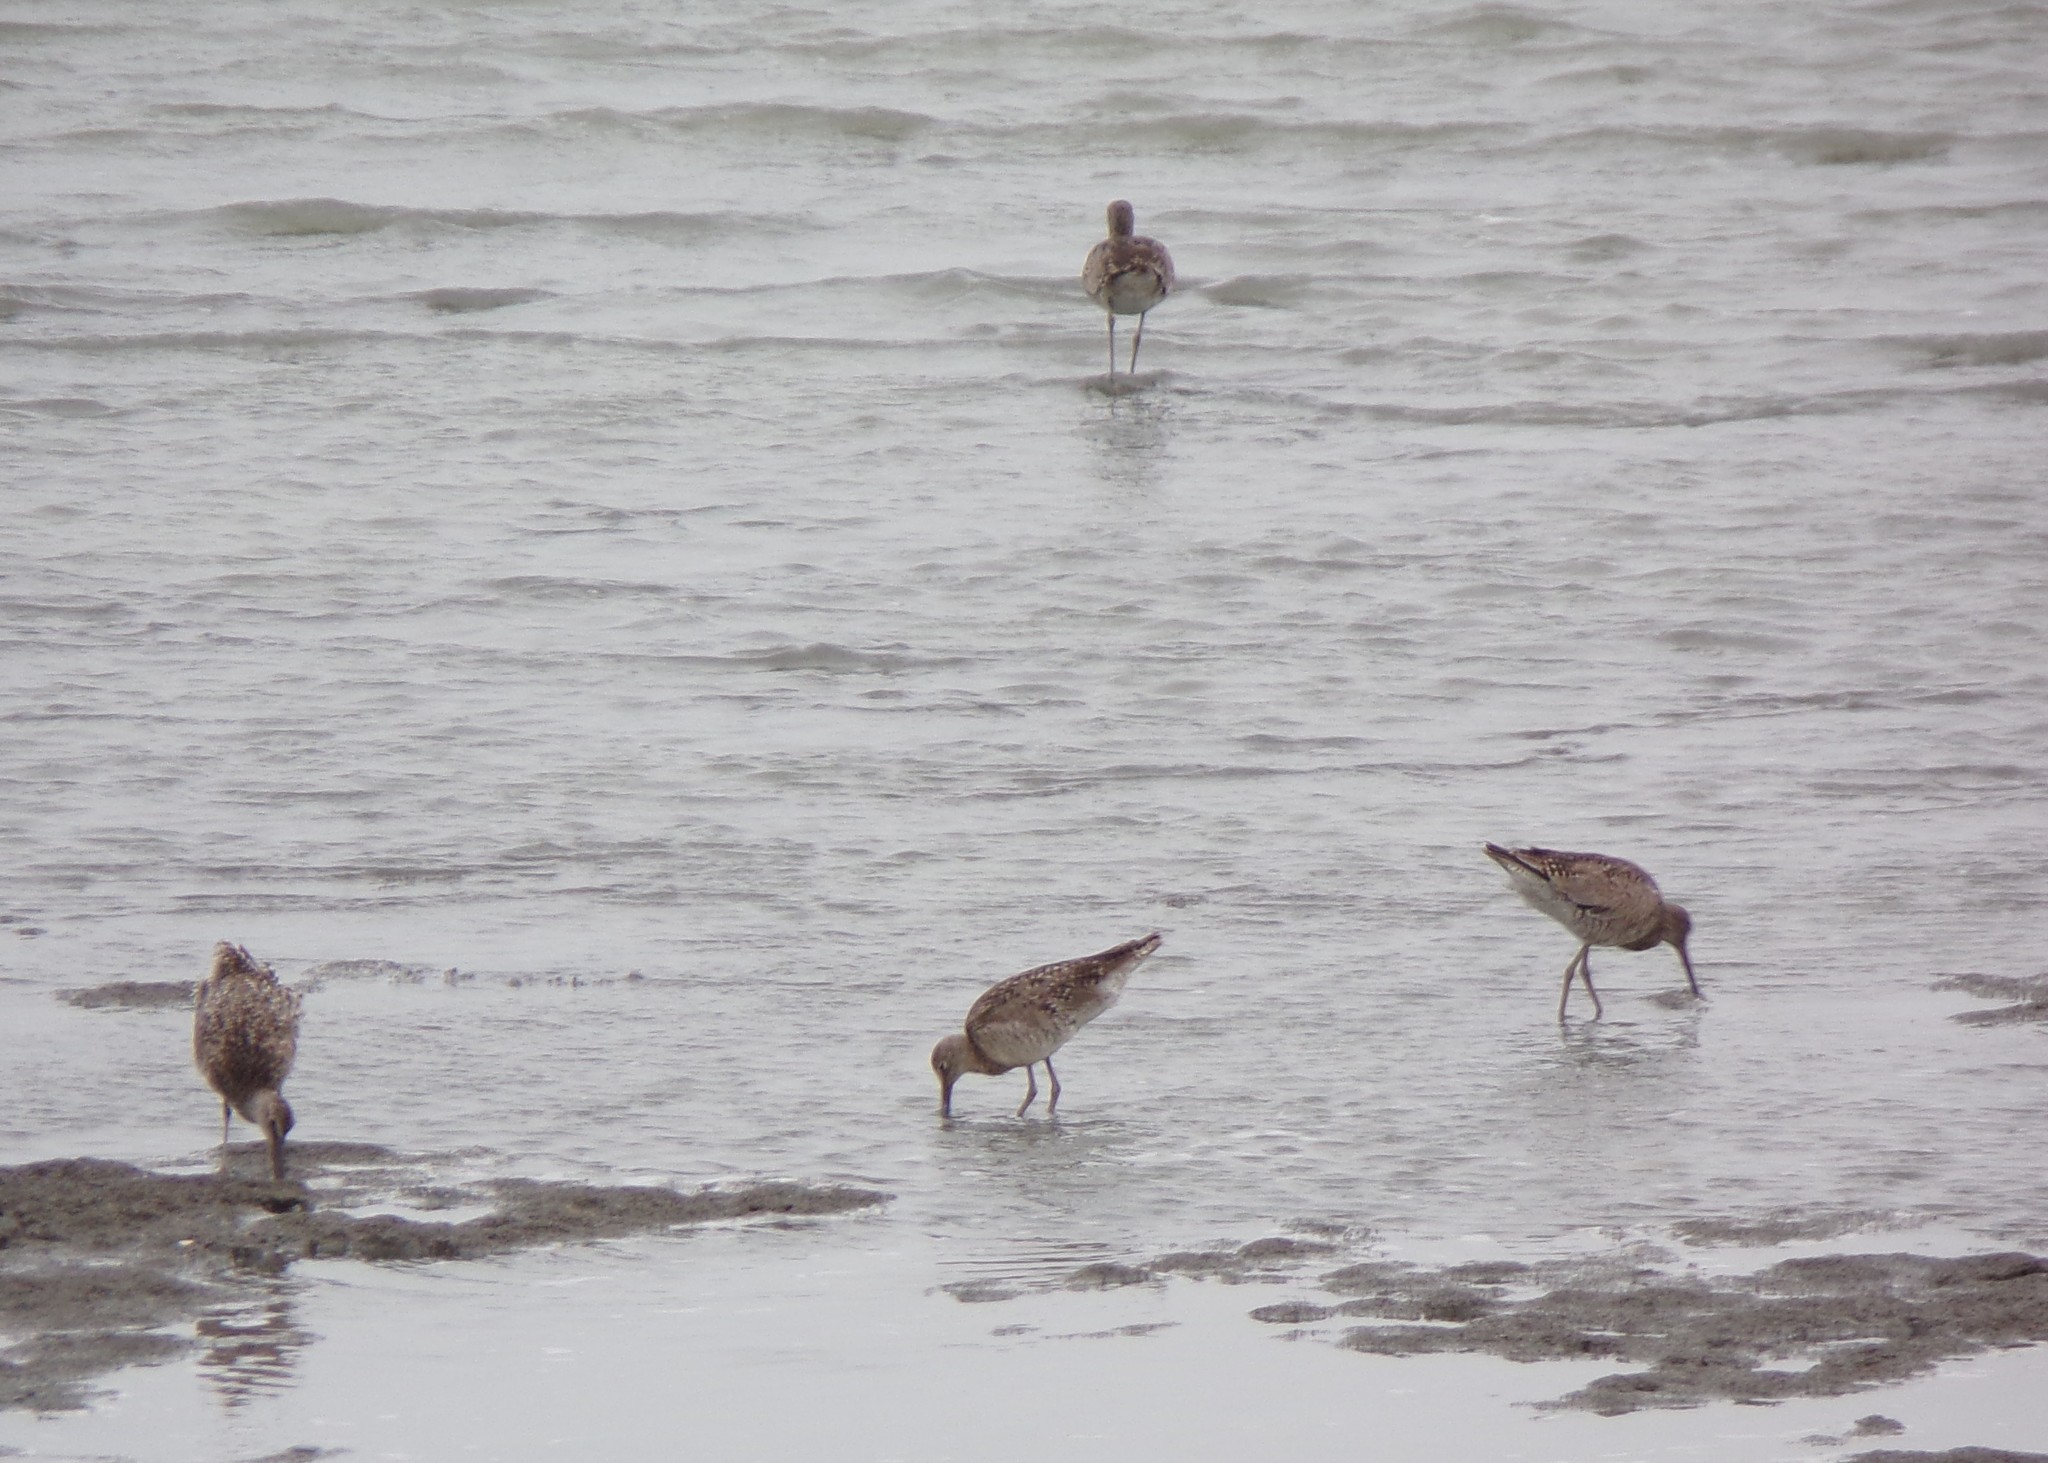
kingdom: Animalia
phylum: Chordata
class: Aves
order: Charadriiformes
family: Scolopacidae
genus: Tringa
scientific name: Tringa semipalmata
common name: Willet
